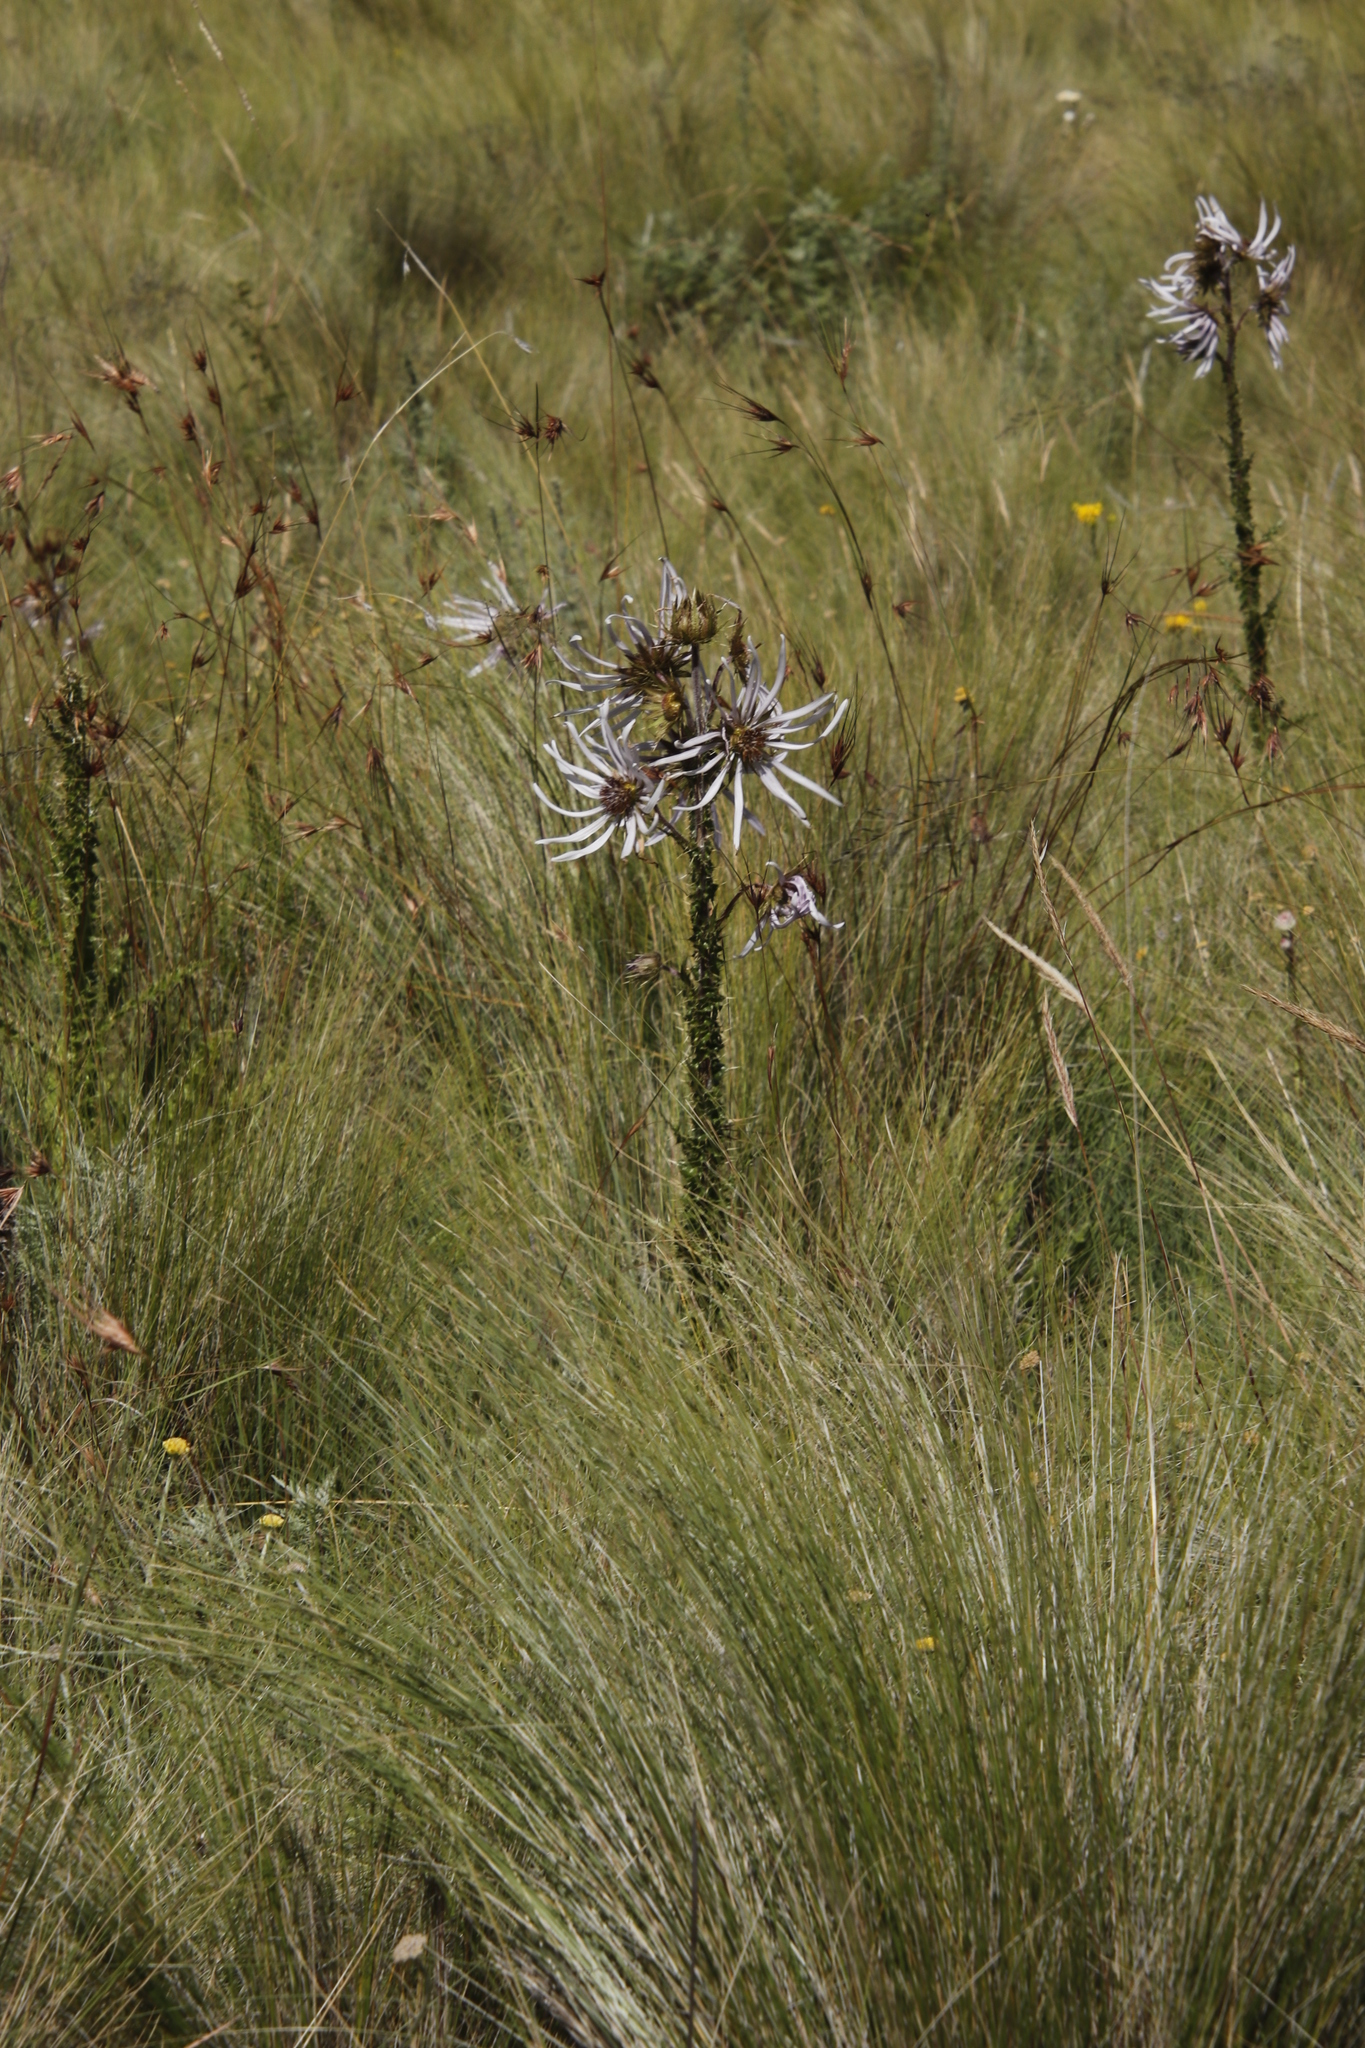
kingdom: Plantae
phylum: Tracheophyta
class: Magnoliopsida
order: Asterales
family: Asteraceae
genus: Berkheya
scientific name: Berkheya purpurea
